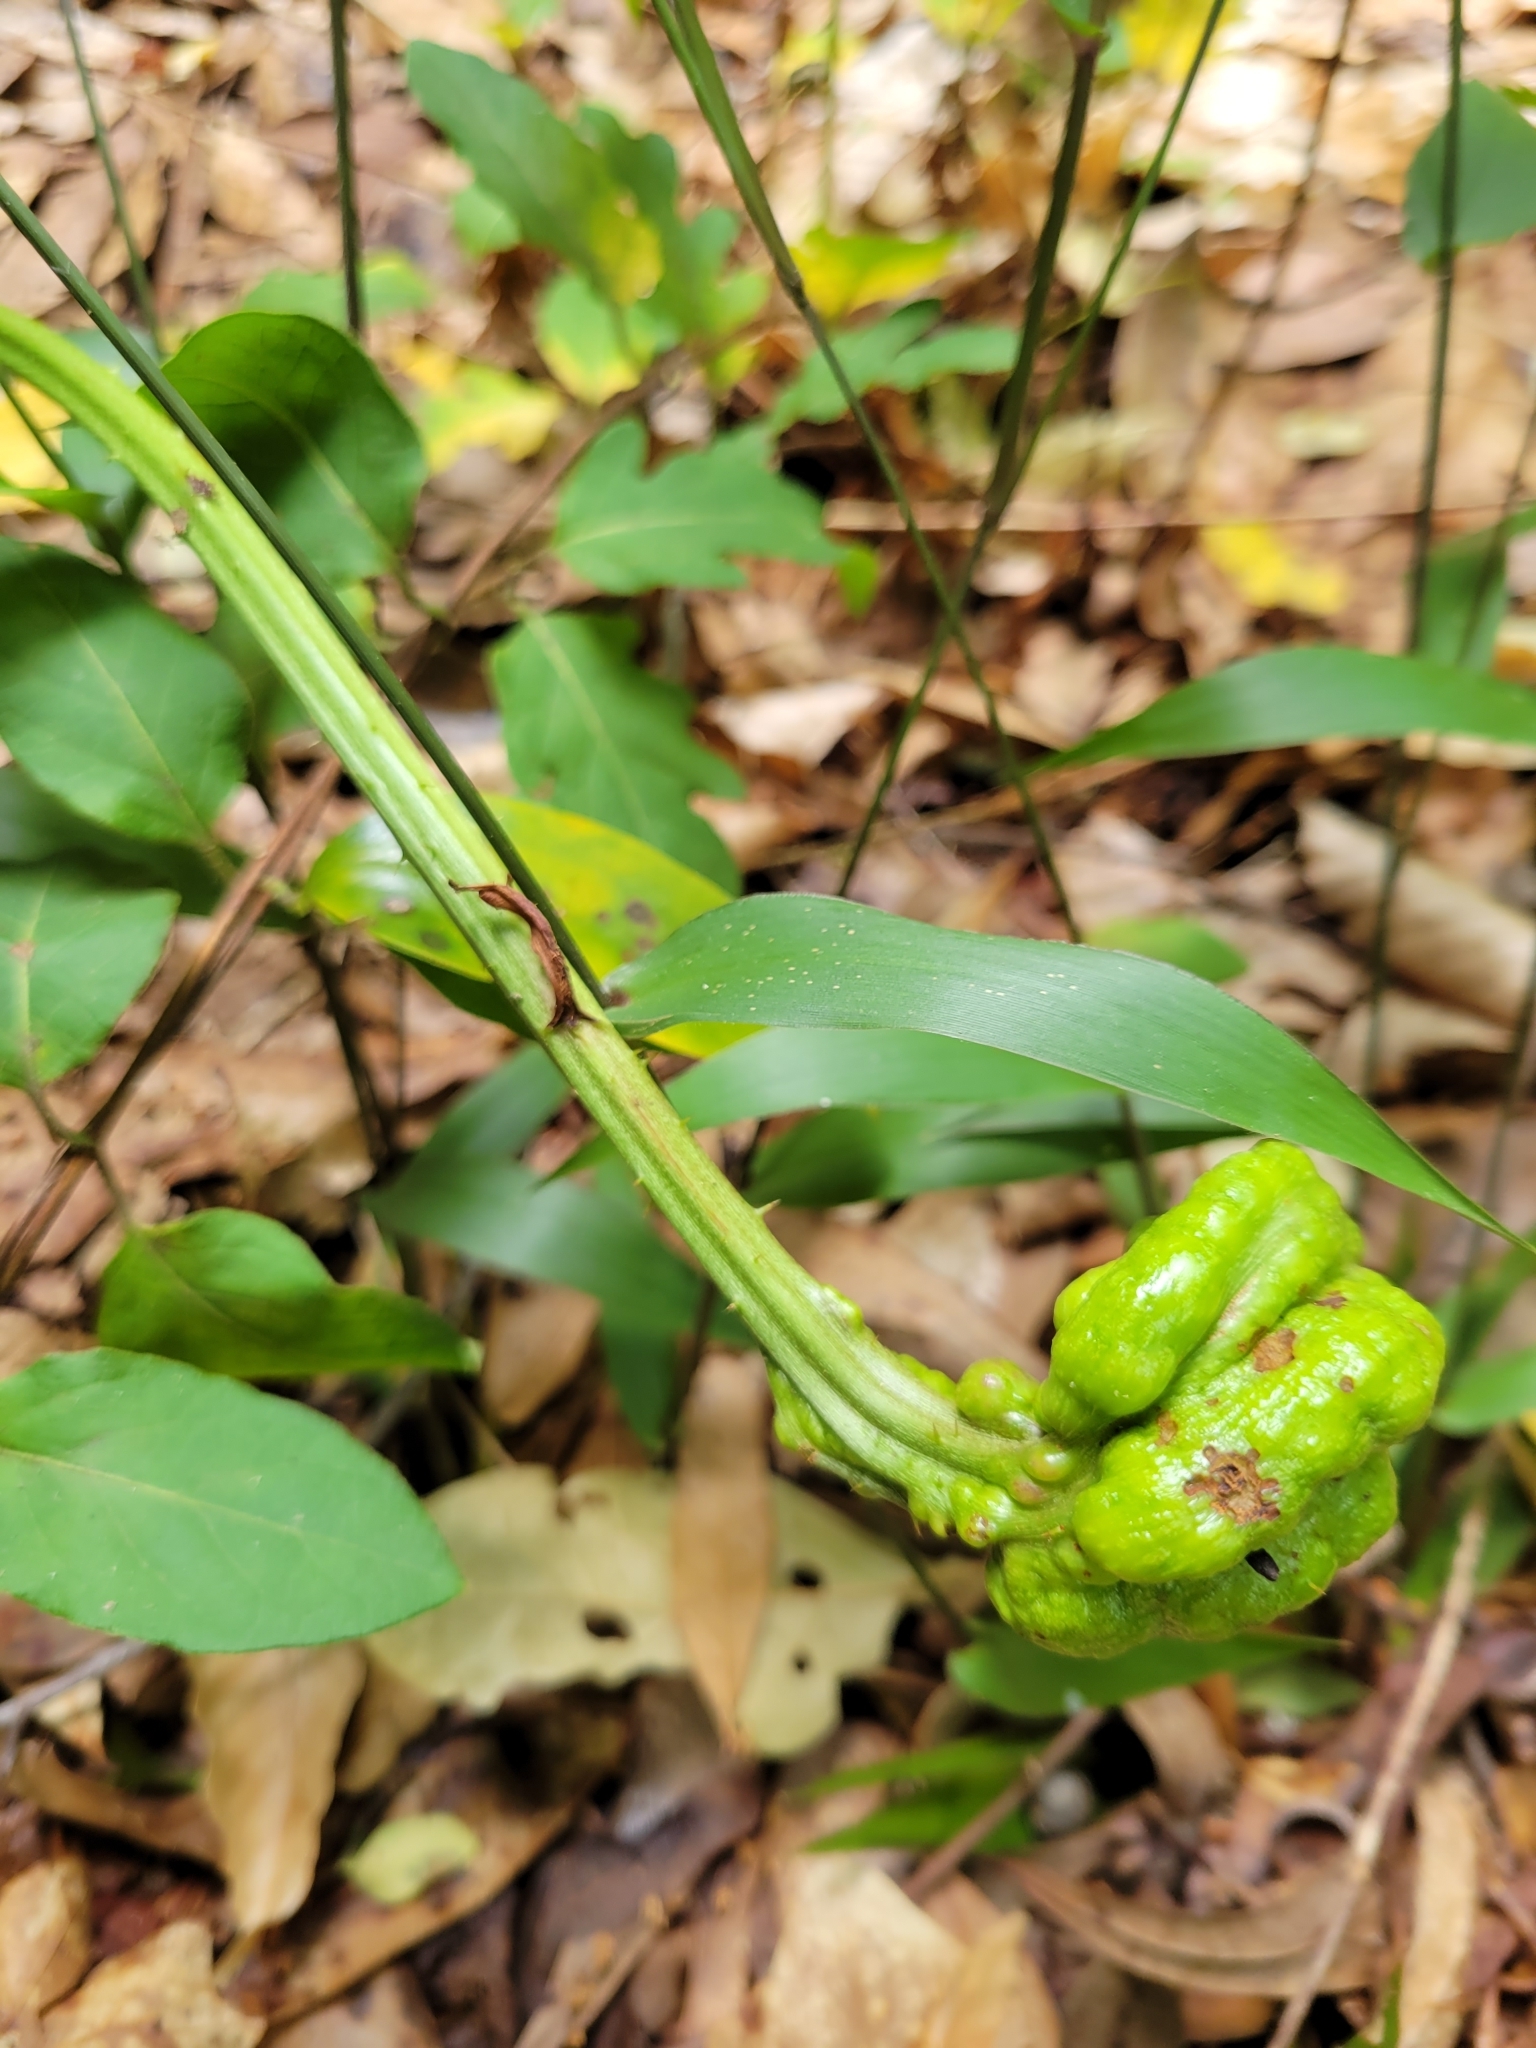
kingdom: Animalia
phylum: Arthropoda
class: Insecta
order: Hymenoptera
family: Cynipidae
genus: Diastrophus
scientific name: Diastrophus
